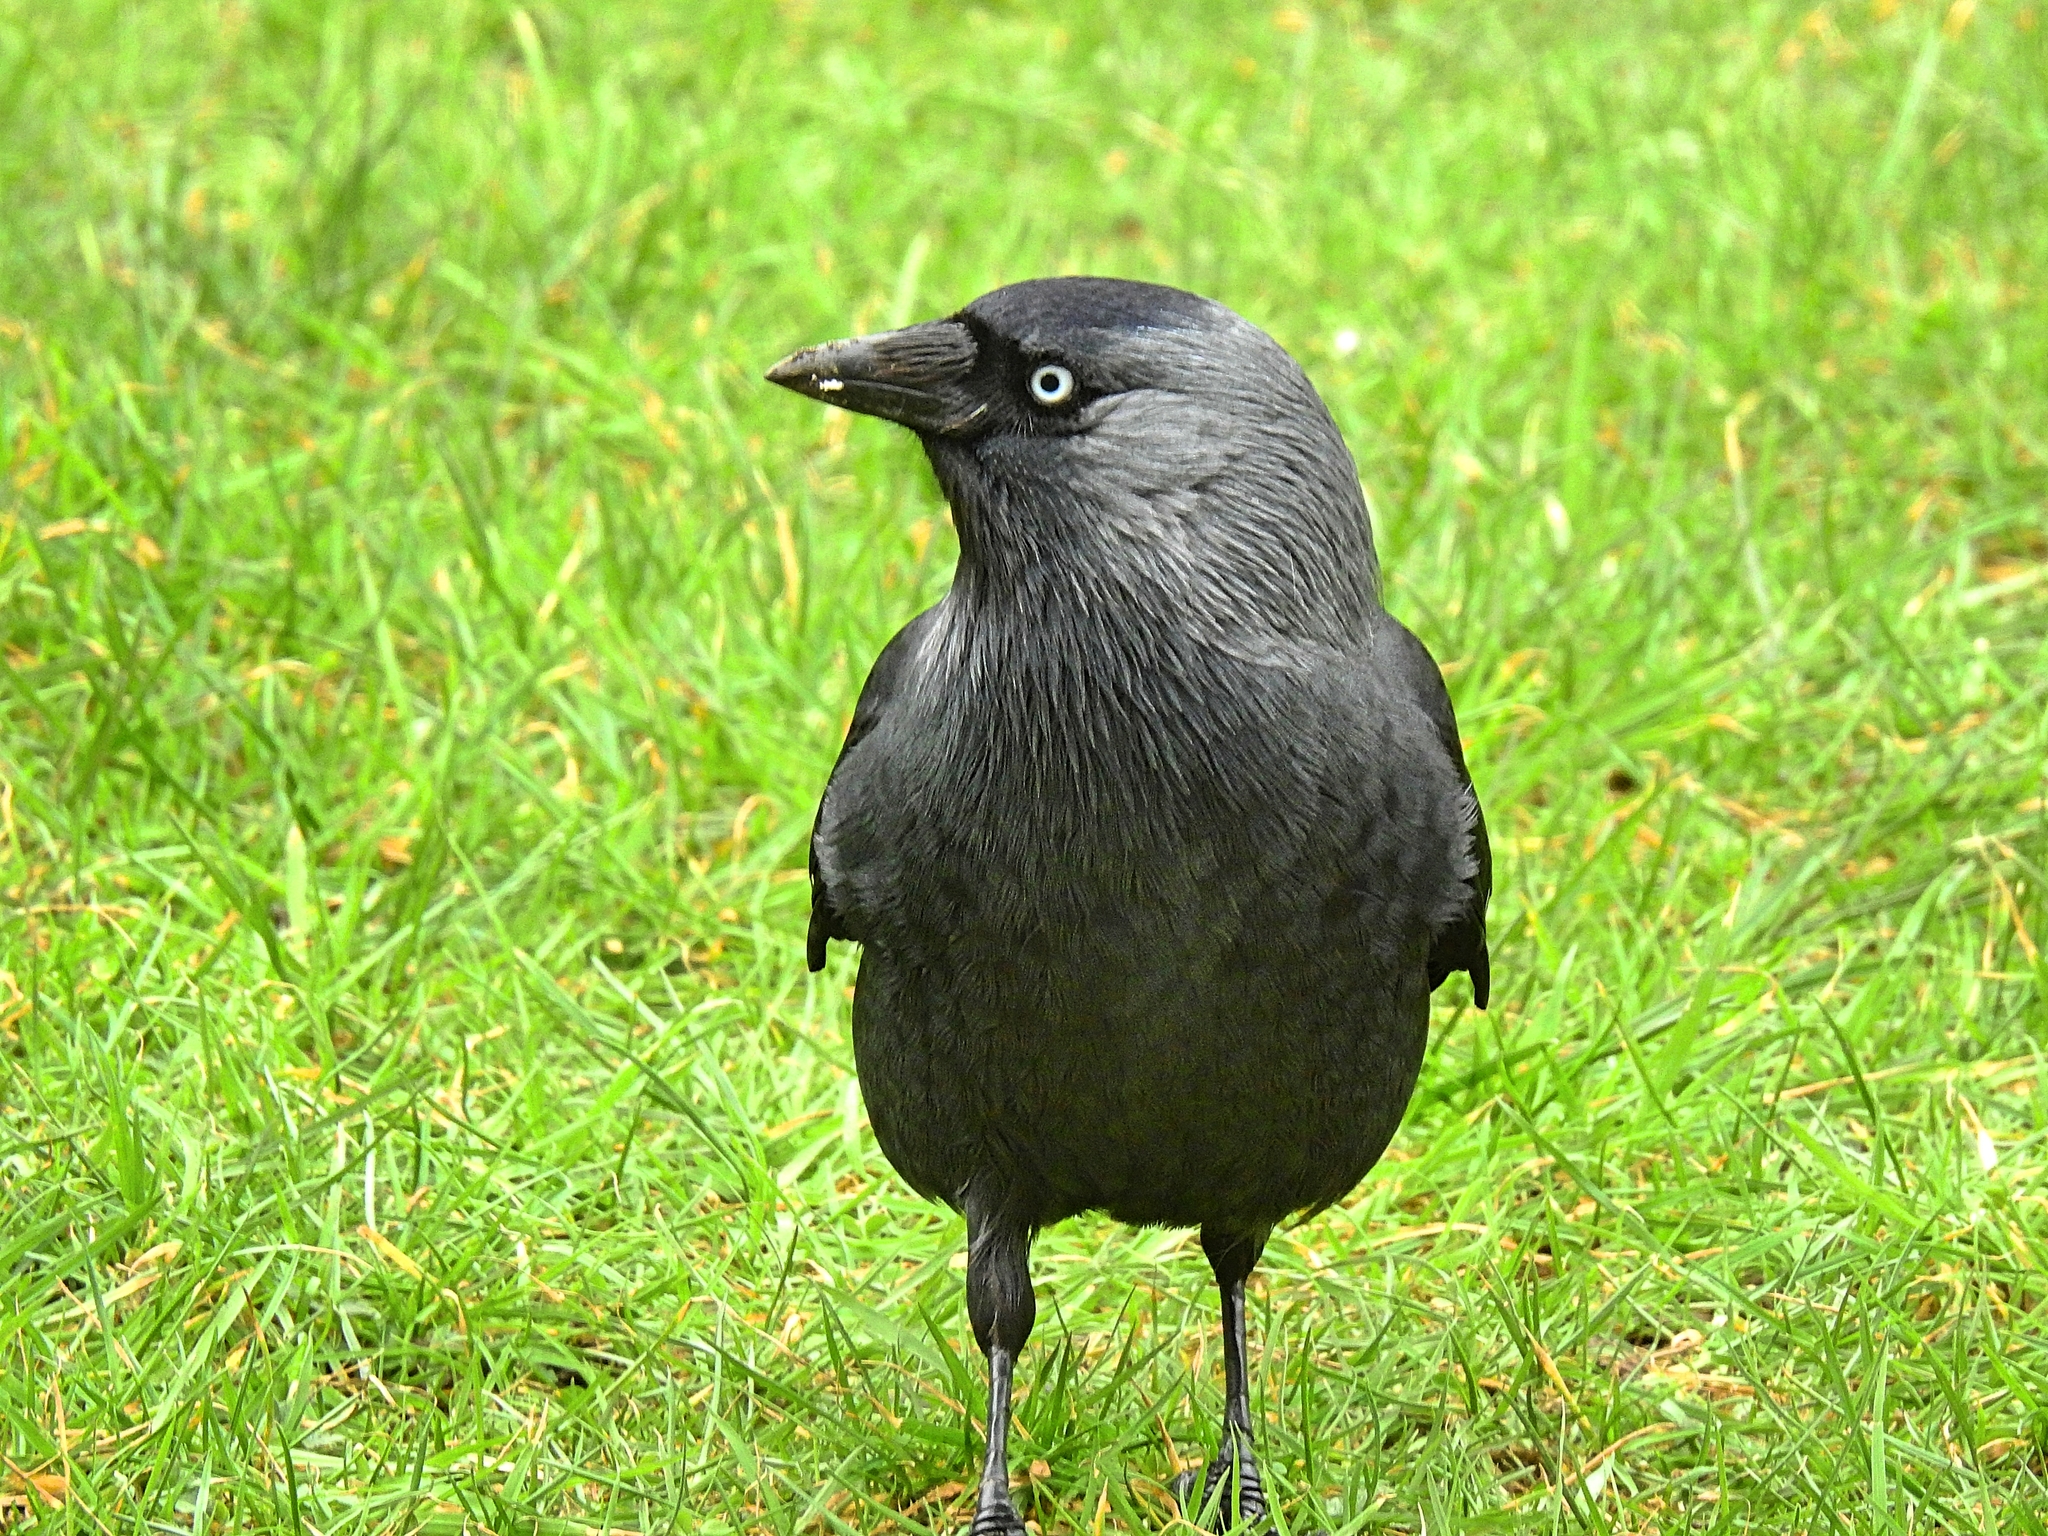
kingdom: Animalia
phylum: Chordata
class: Aves
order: Passeriformes
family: Corvidae
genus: Coloeus
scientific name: Coloeus monedula
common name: Western jackdaw
